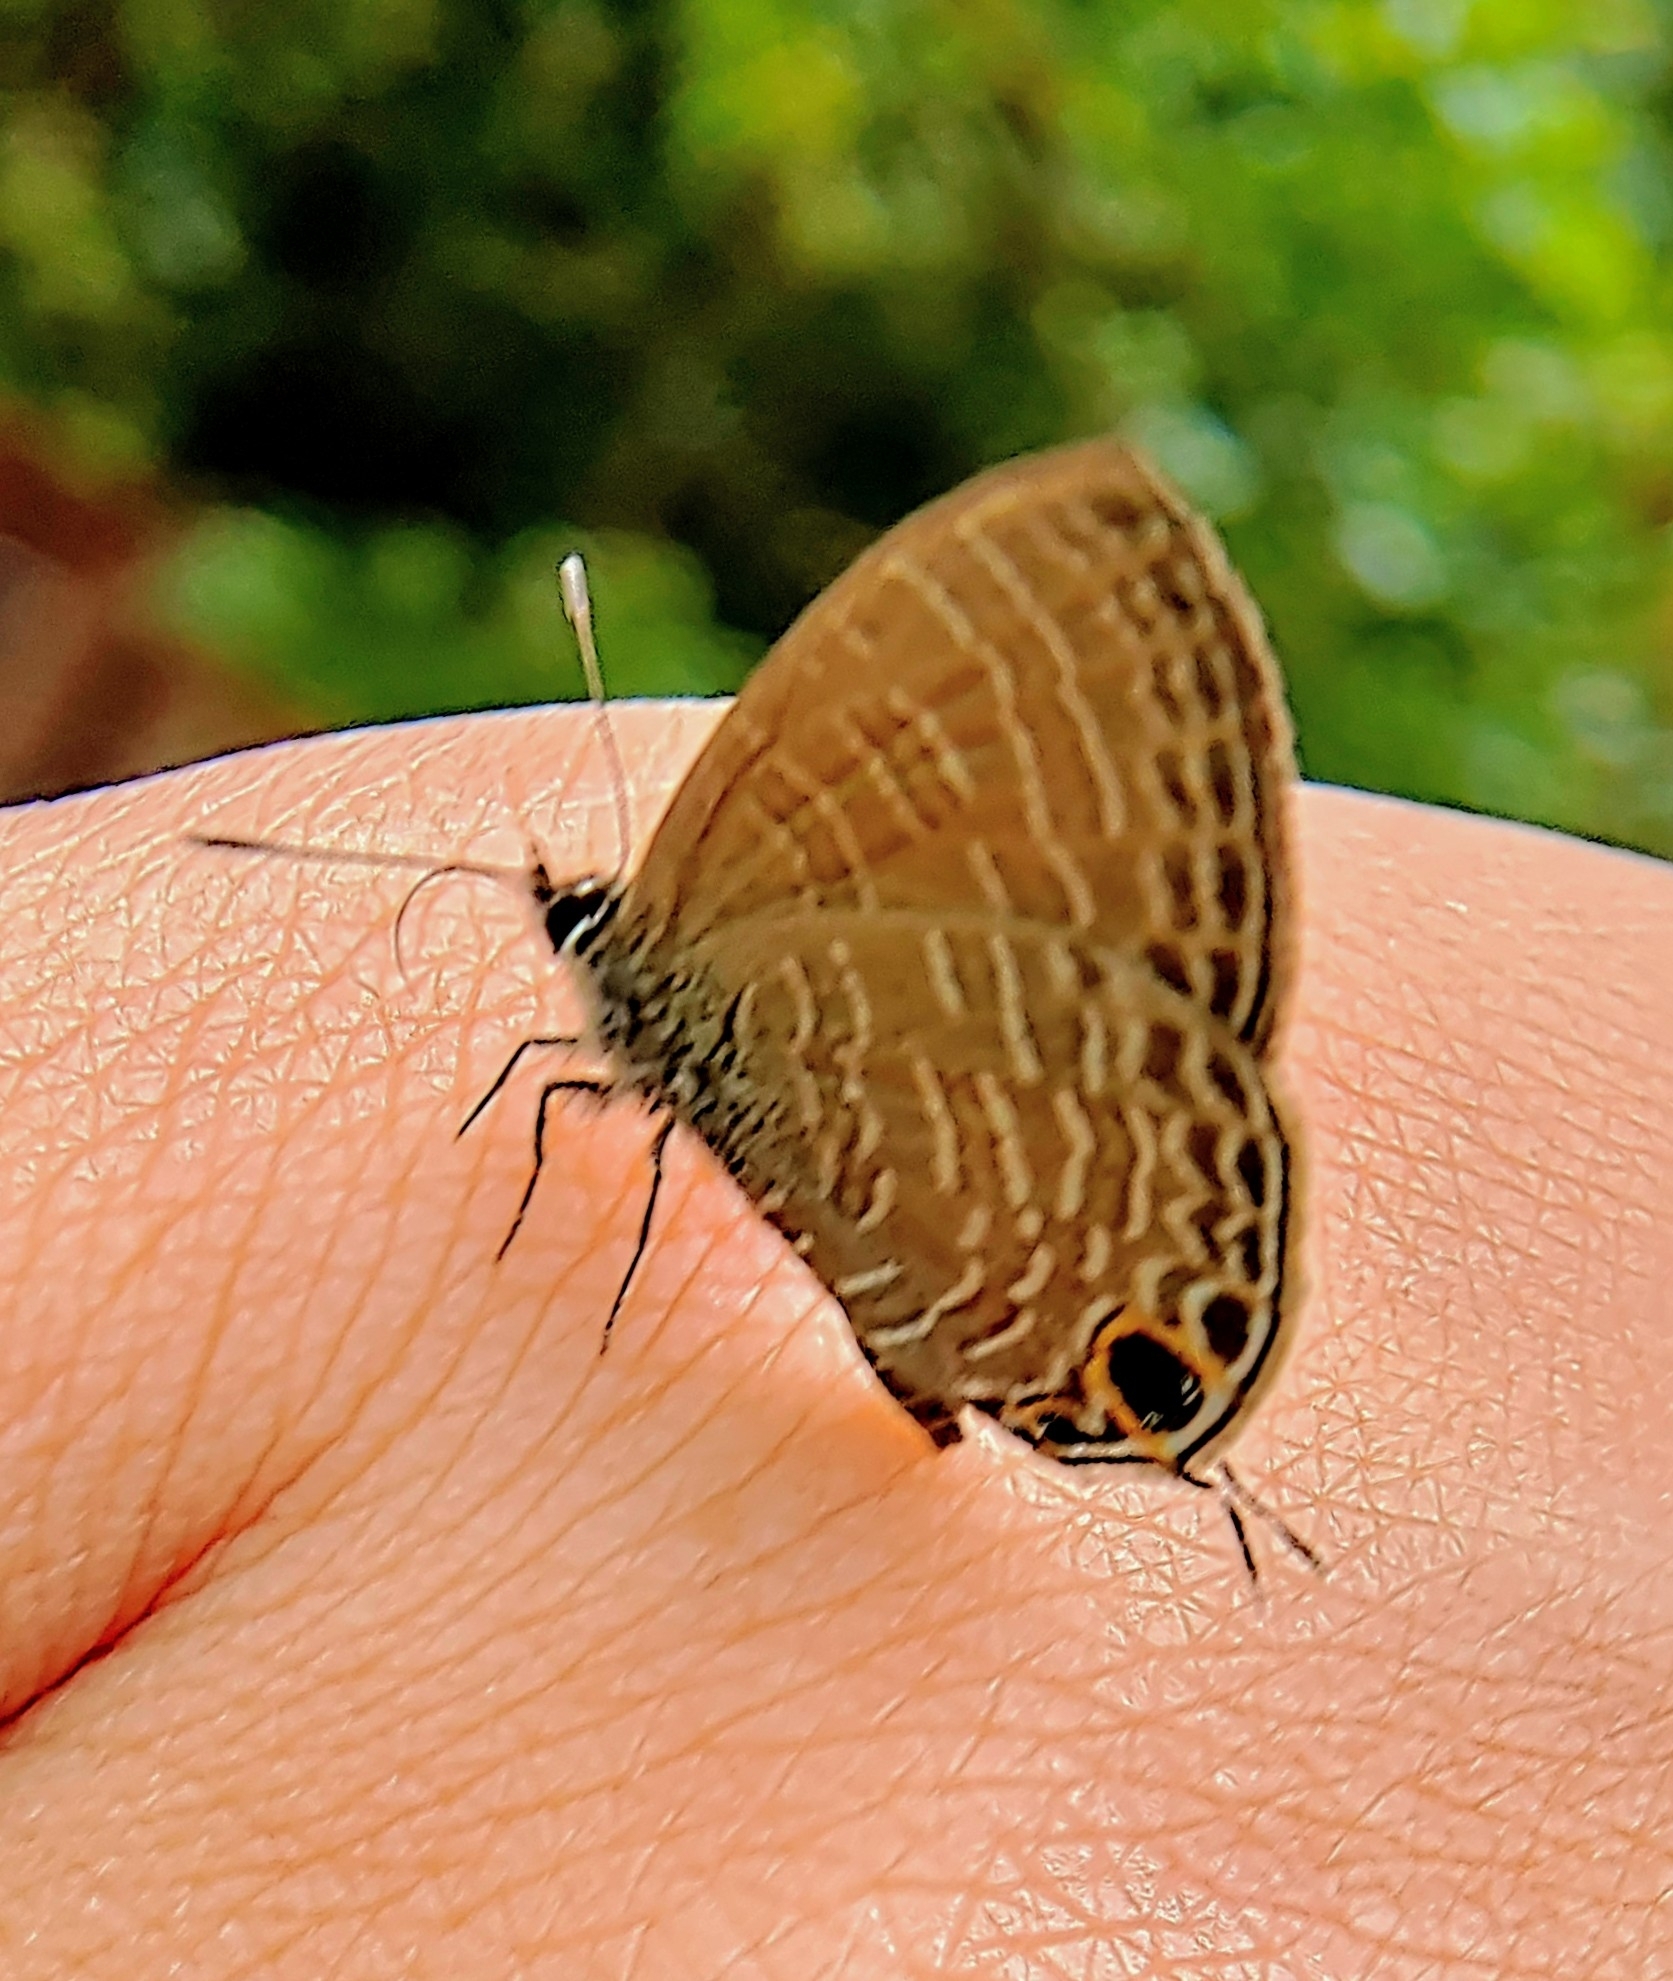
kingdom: Animalia
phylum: Arthropoda
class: Insecta
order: Lepidoptera
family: Lycaenidae
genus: Nacaduba
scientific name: Nacaduba berenice
